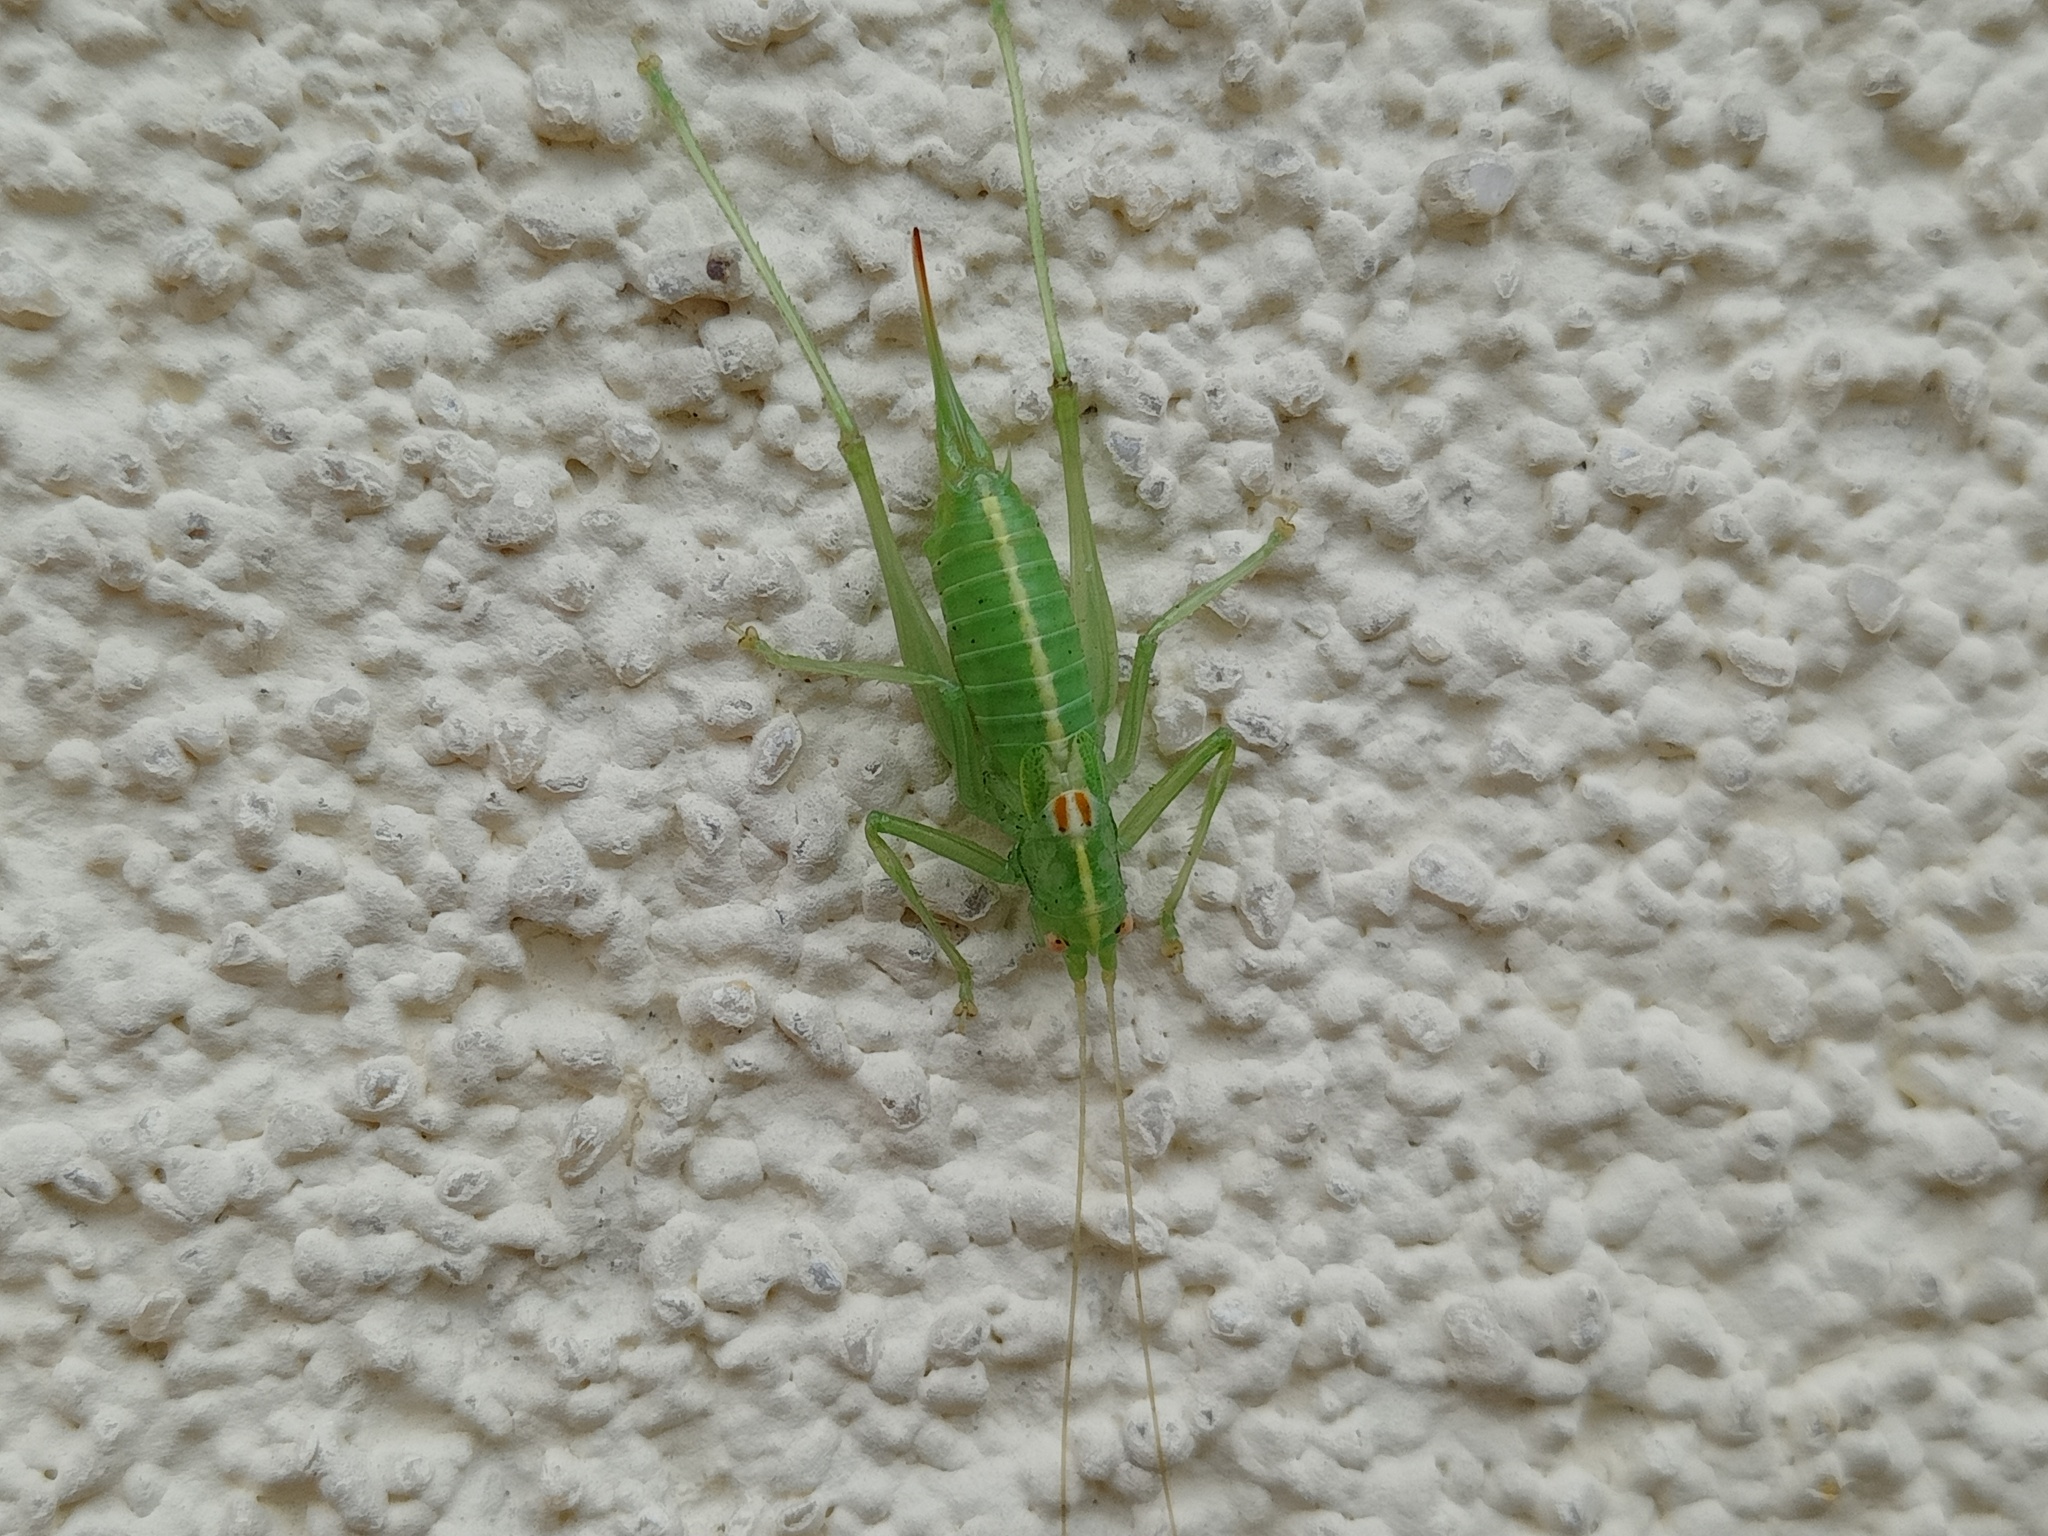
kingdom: Animalia
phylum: Arthropoda
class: Insecta
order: Orthoptera
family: Tettigoniidae
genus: Meconema
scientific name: Meconema meridionale
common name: Southern oak bush-cricket
